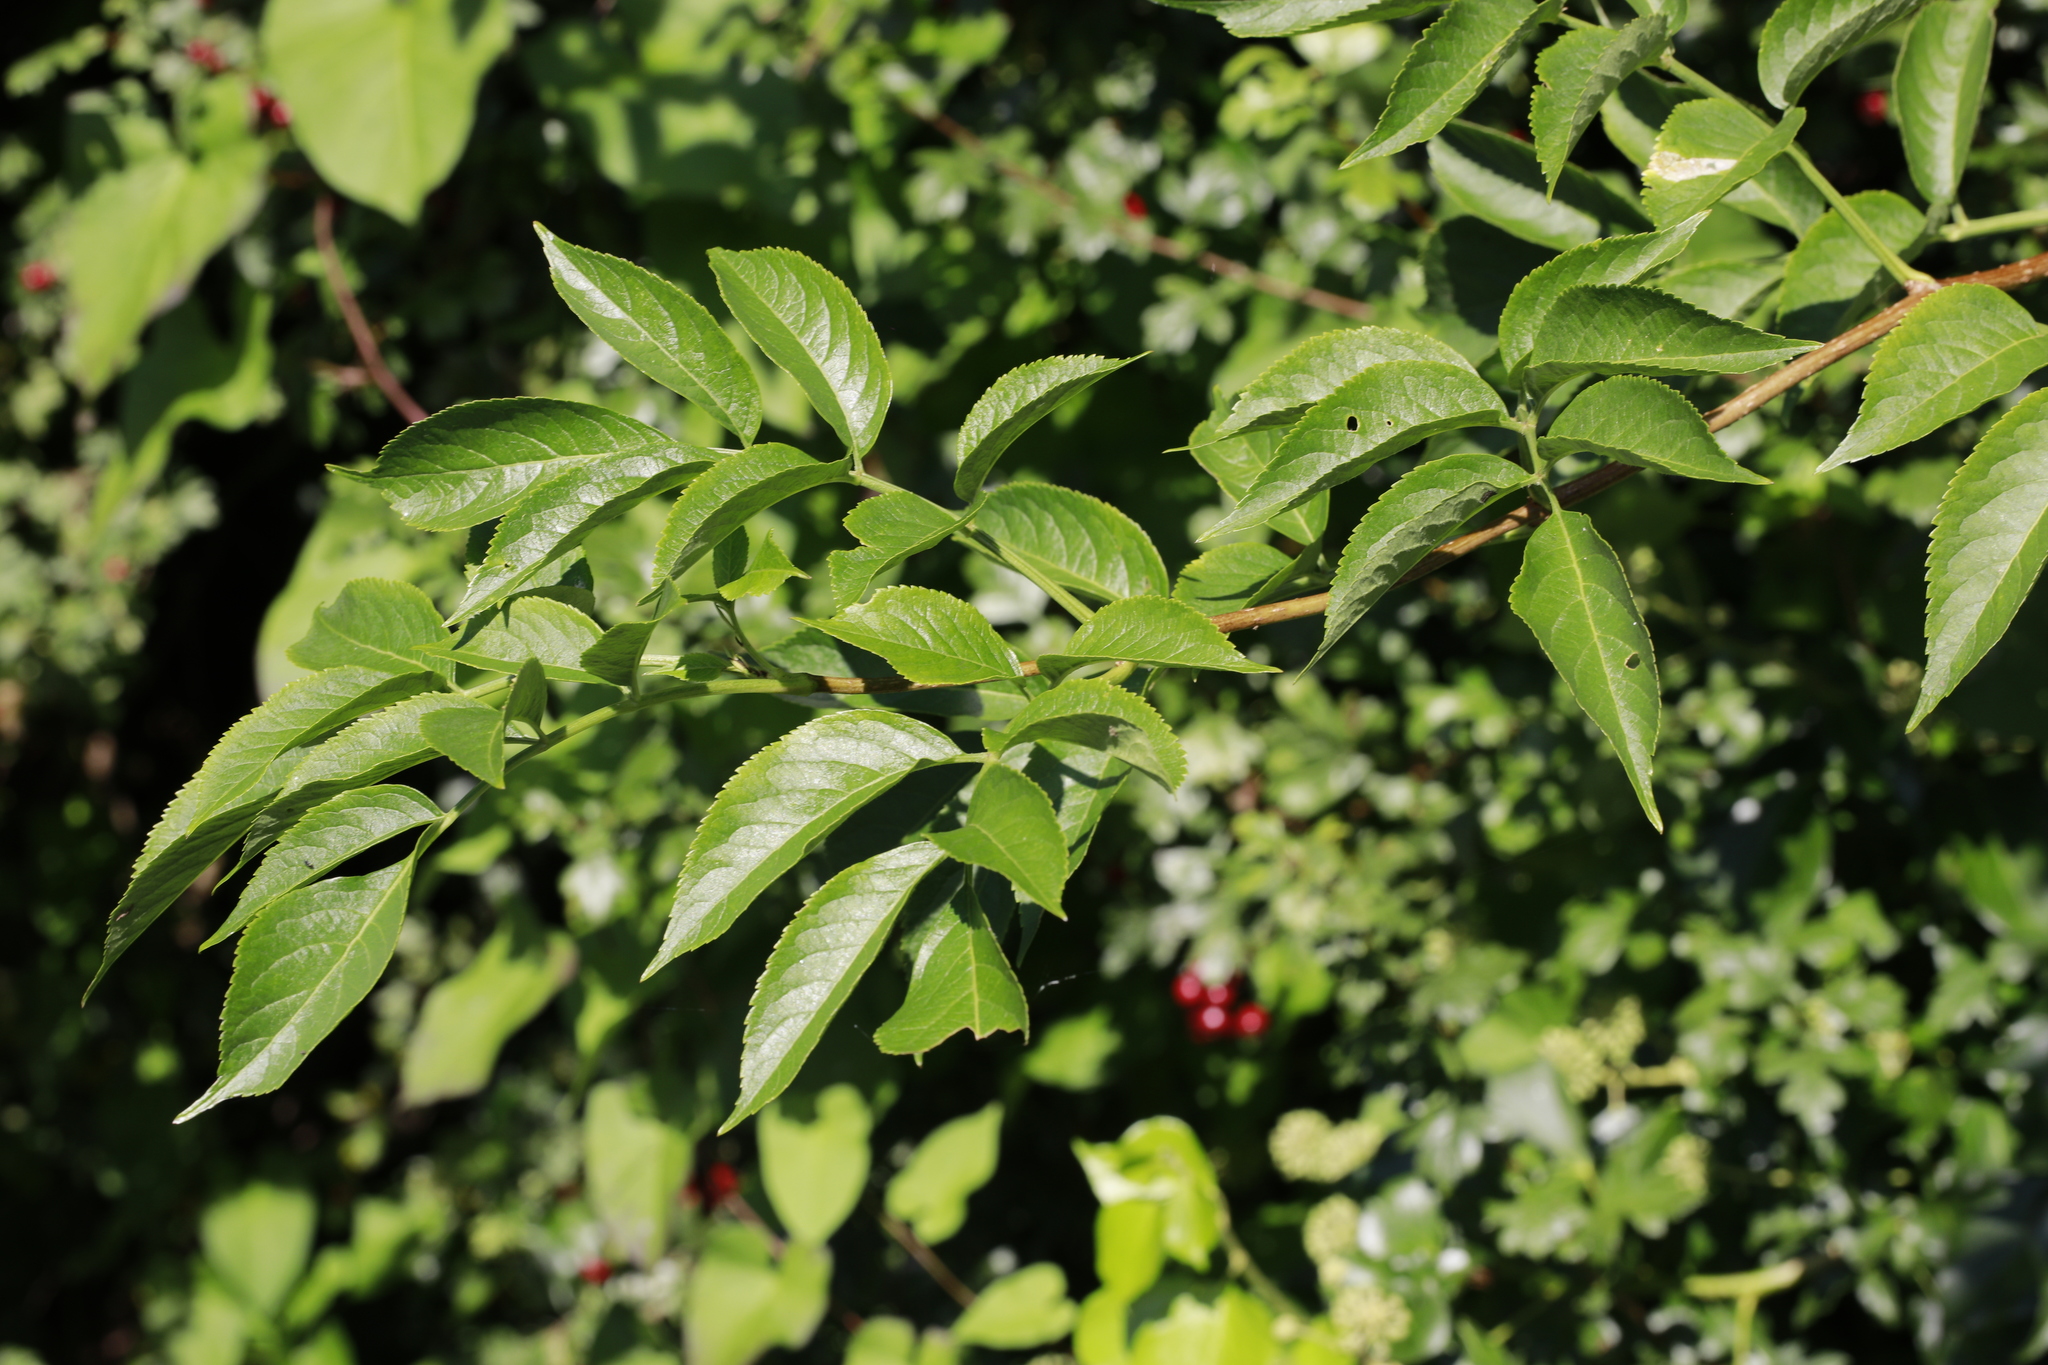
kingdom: Plantae
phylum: Tracheophyta
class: Magnoliopsida
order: Dipsacales
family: Viburnaceae
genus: Sambucus
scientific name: Sambucus nigra
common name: Elder
